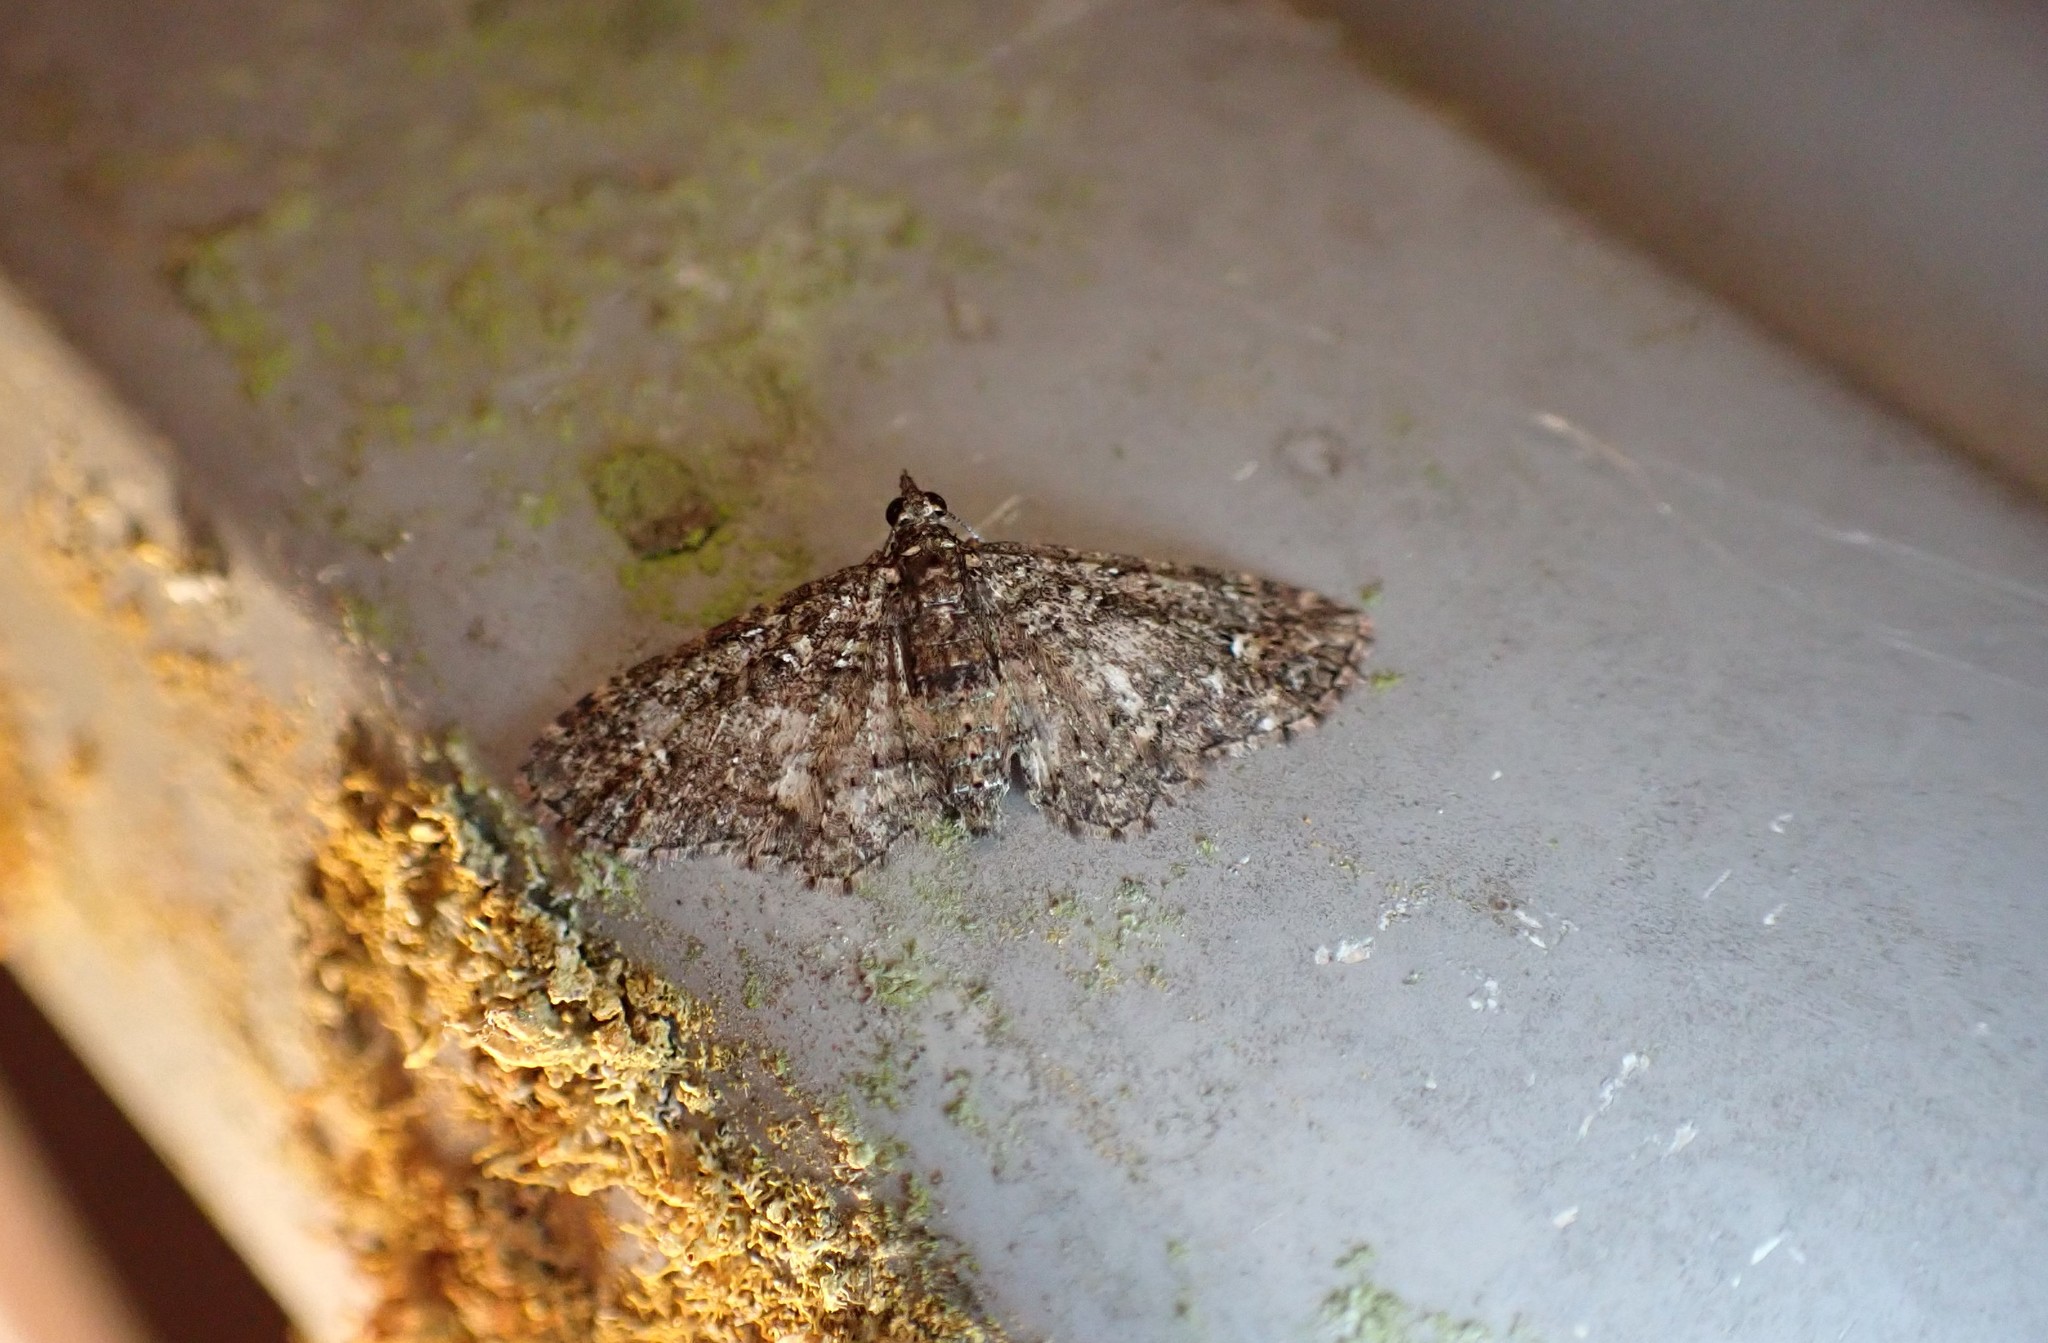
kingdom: Animalia
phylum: Arthropoda
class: Insecta
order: Lepidoptera
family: Geometridae
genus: Pasiphilodes
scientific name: Pasiphilodes testulata
